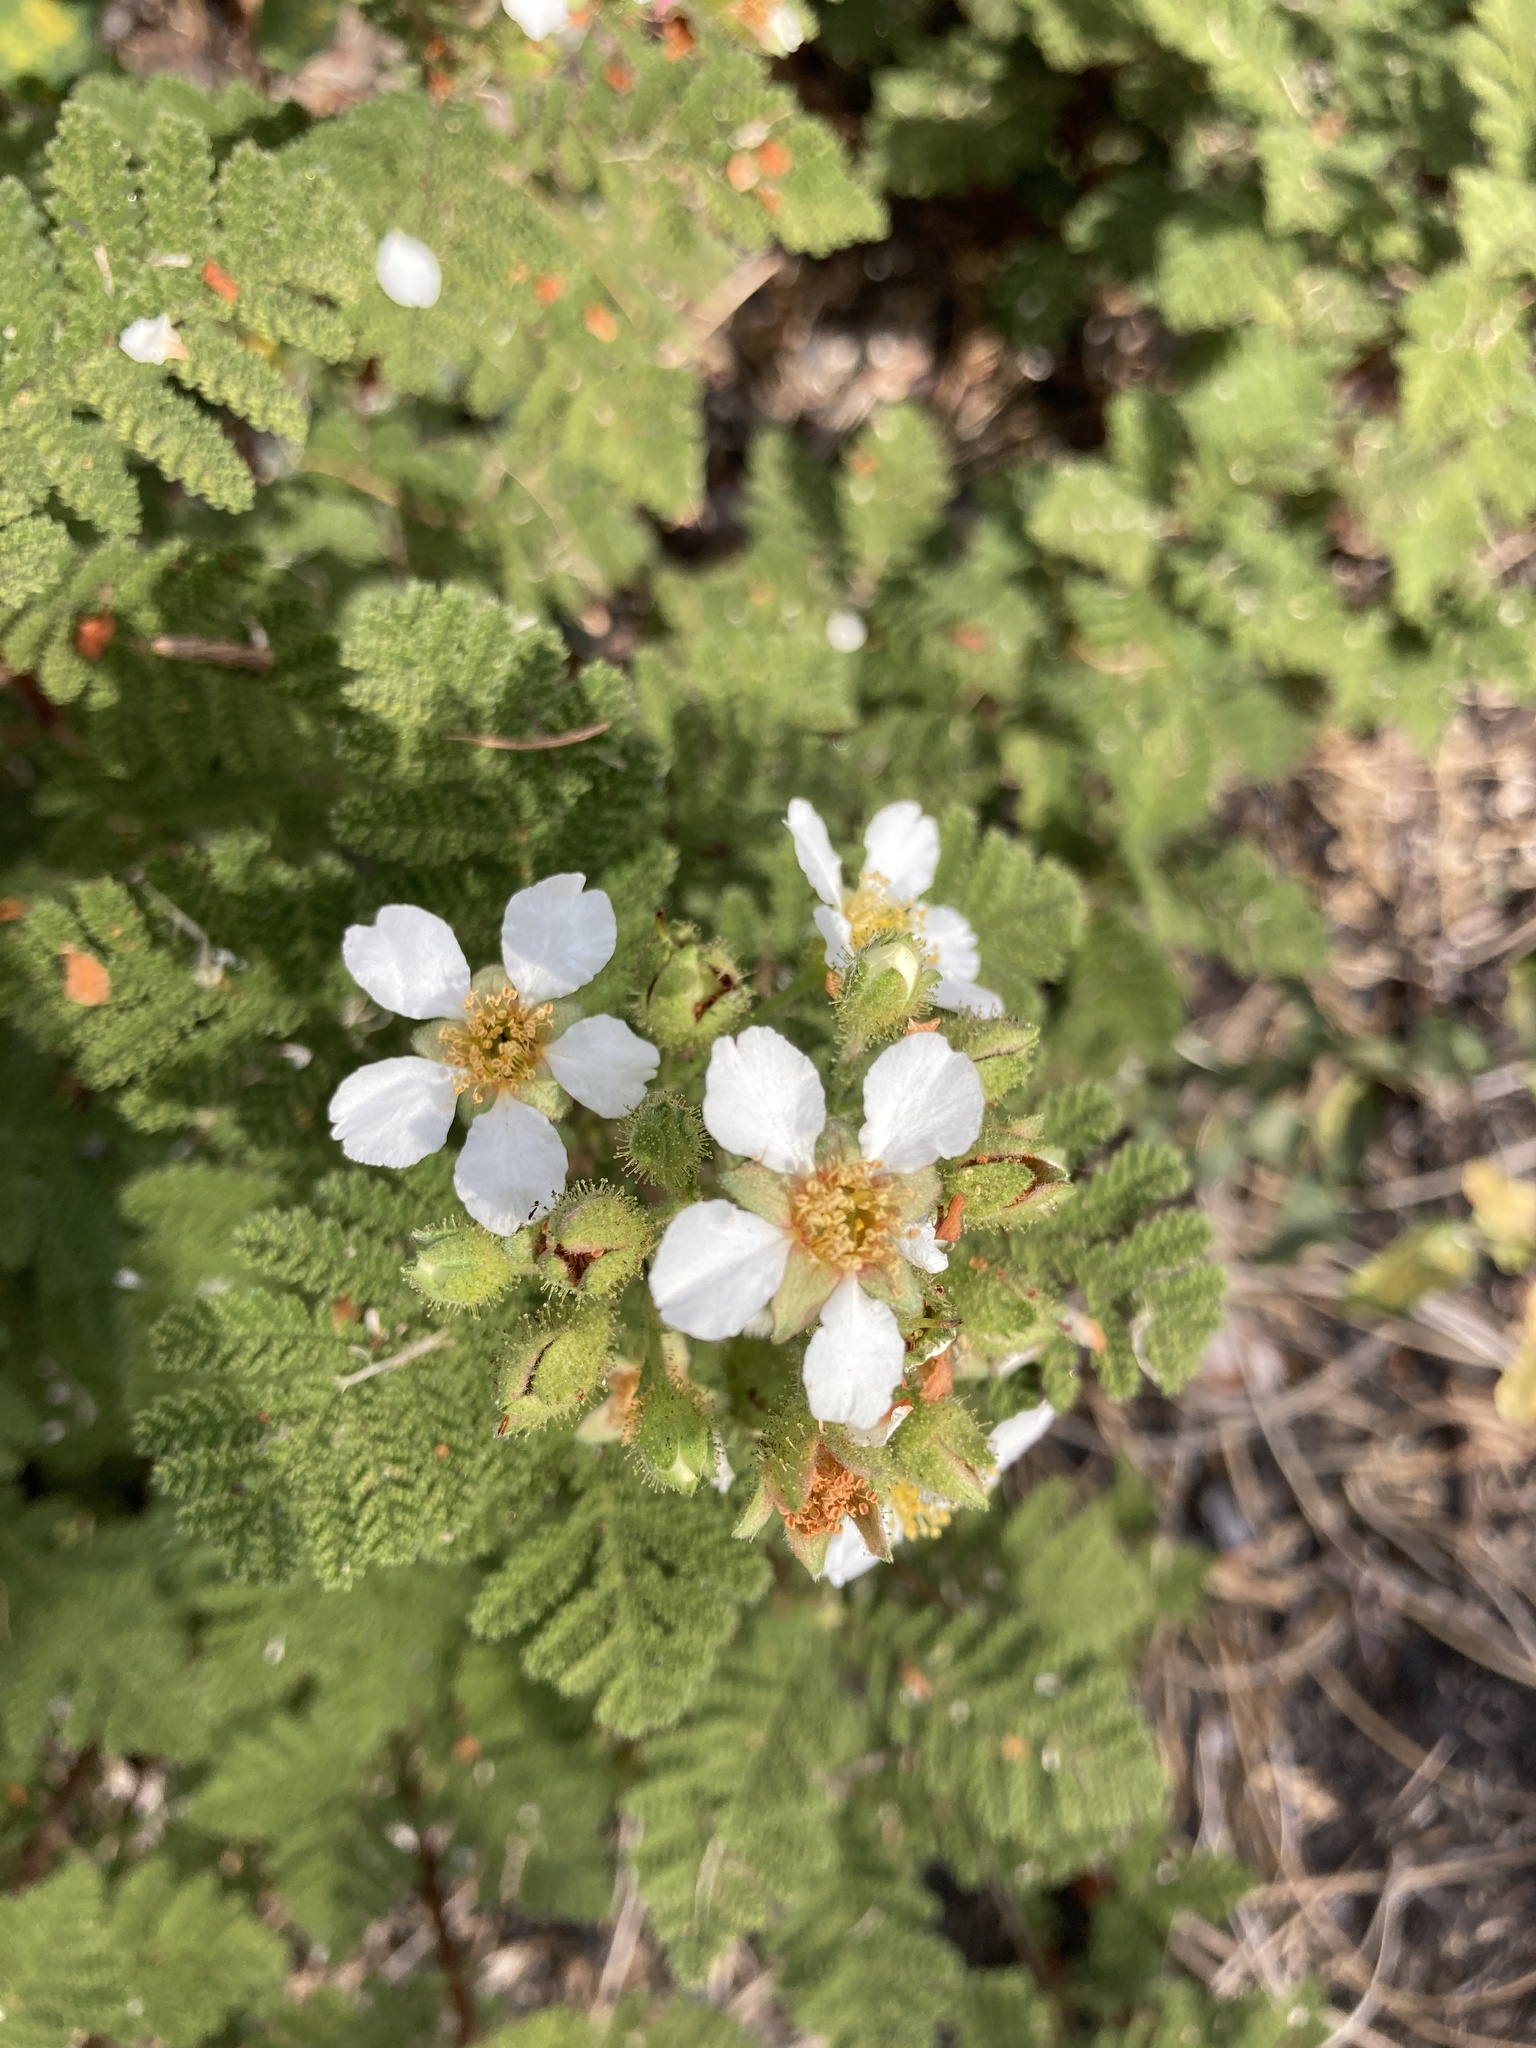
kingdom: Plantae
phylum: Tracheophyta
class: Magnoliopsida
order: Rosales
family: Rosaceae
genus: Chamaebatia
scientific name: Chamaebatia foliolosa
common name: Mountain misery
